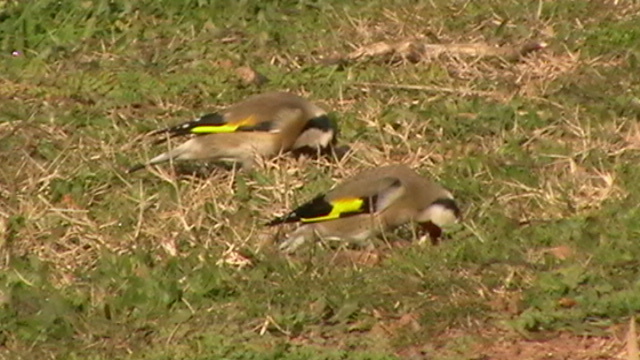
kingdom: Animalia
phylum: Chordata
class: Aves
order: Passeriformes
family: Fringillidae
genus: Carduelis
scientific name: Carduelis carduelis
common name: European goldfinch
